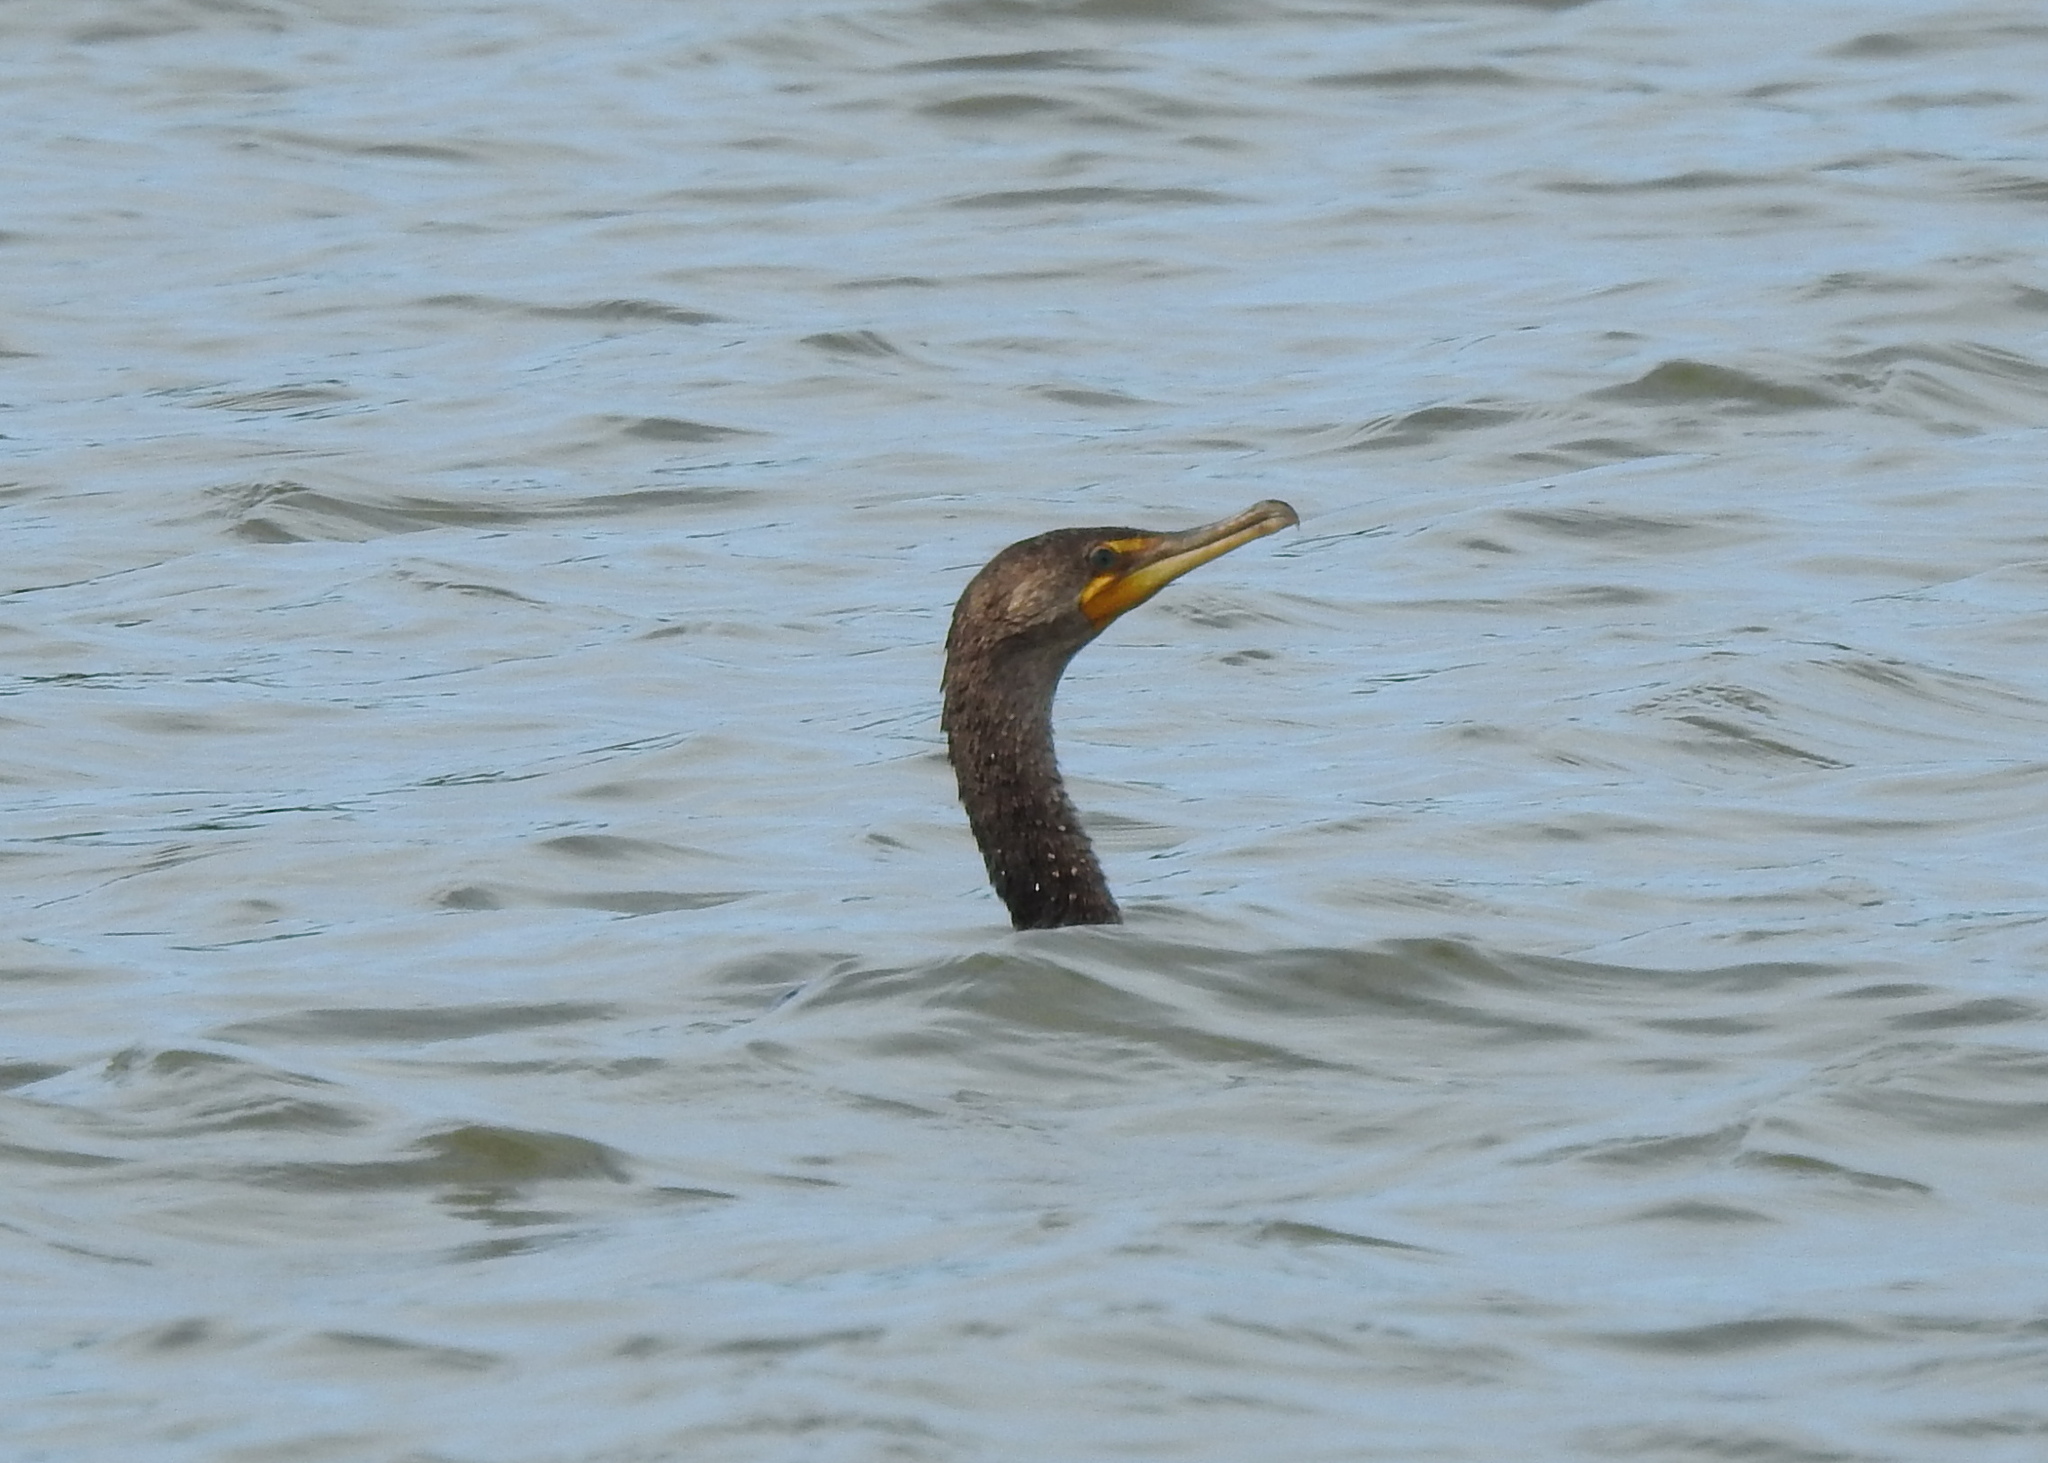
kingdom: Animalia
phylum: Chordata
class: Aves
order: Suliformes
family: Phalacrocoracidae
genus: Phalacrocorax
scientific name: Phalacrocorax auritus
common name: Double-crested cormorant
